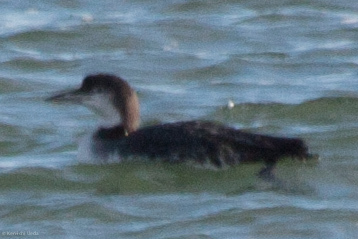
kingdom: Animalia
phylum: Chordata
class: Aves
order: Gaviiformes
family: Gaviidae
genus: Gavia
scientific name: Gavia immer
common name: Common loon
